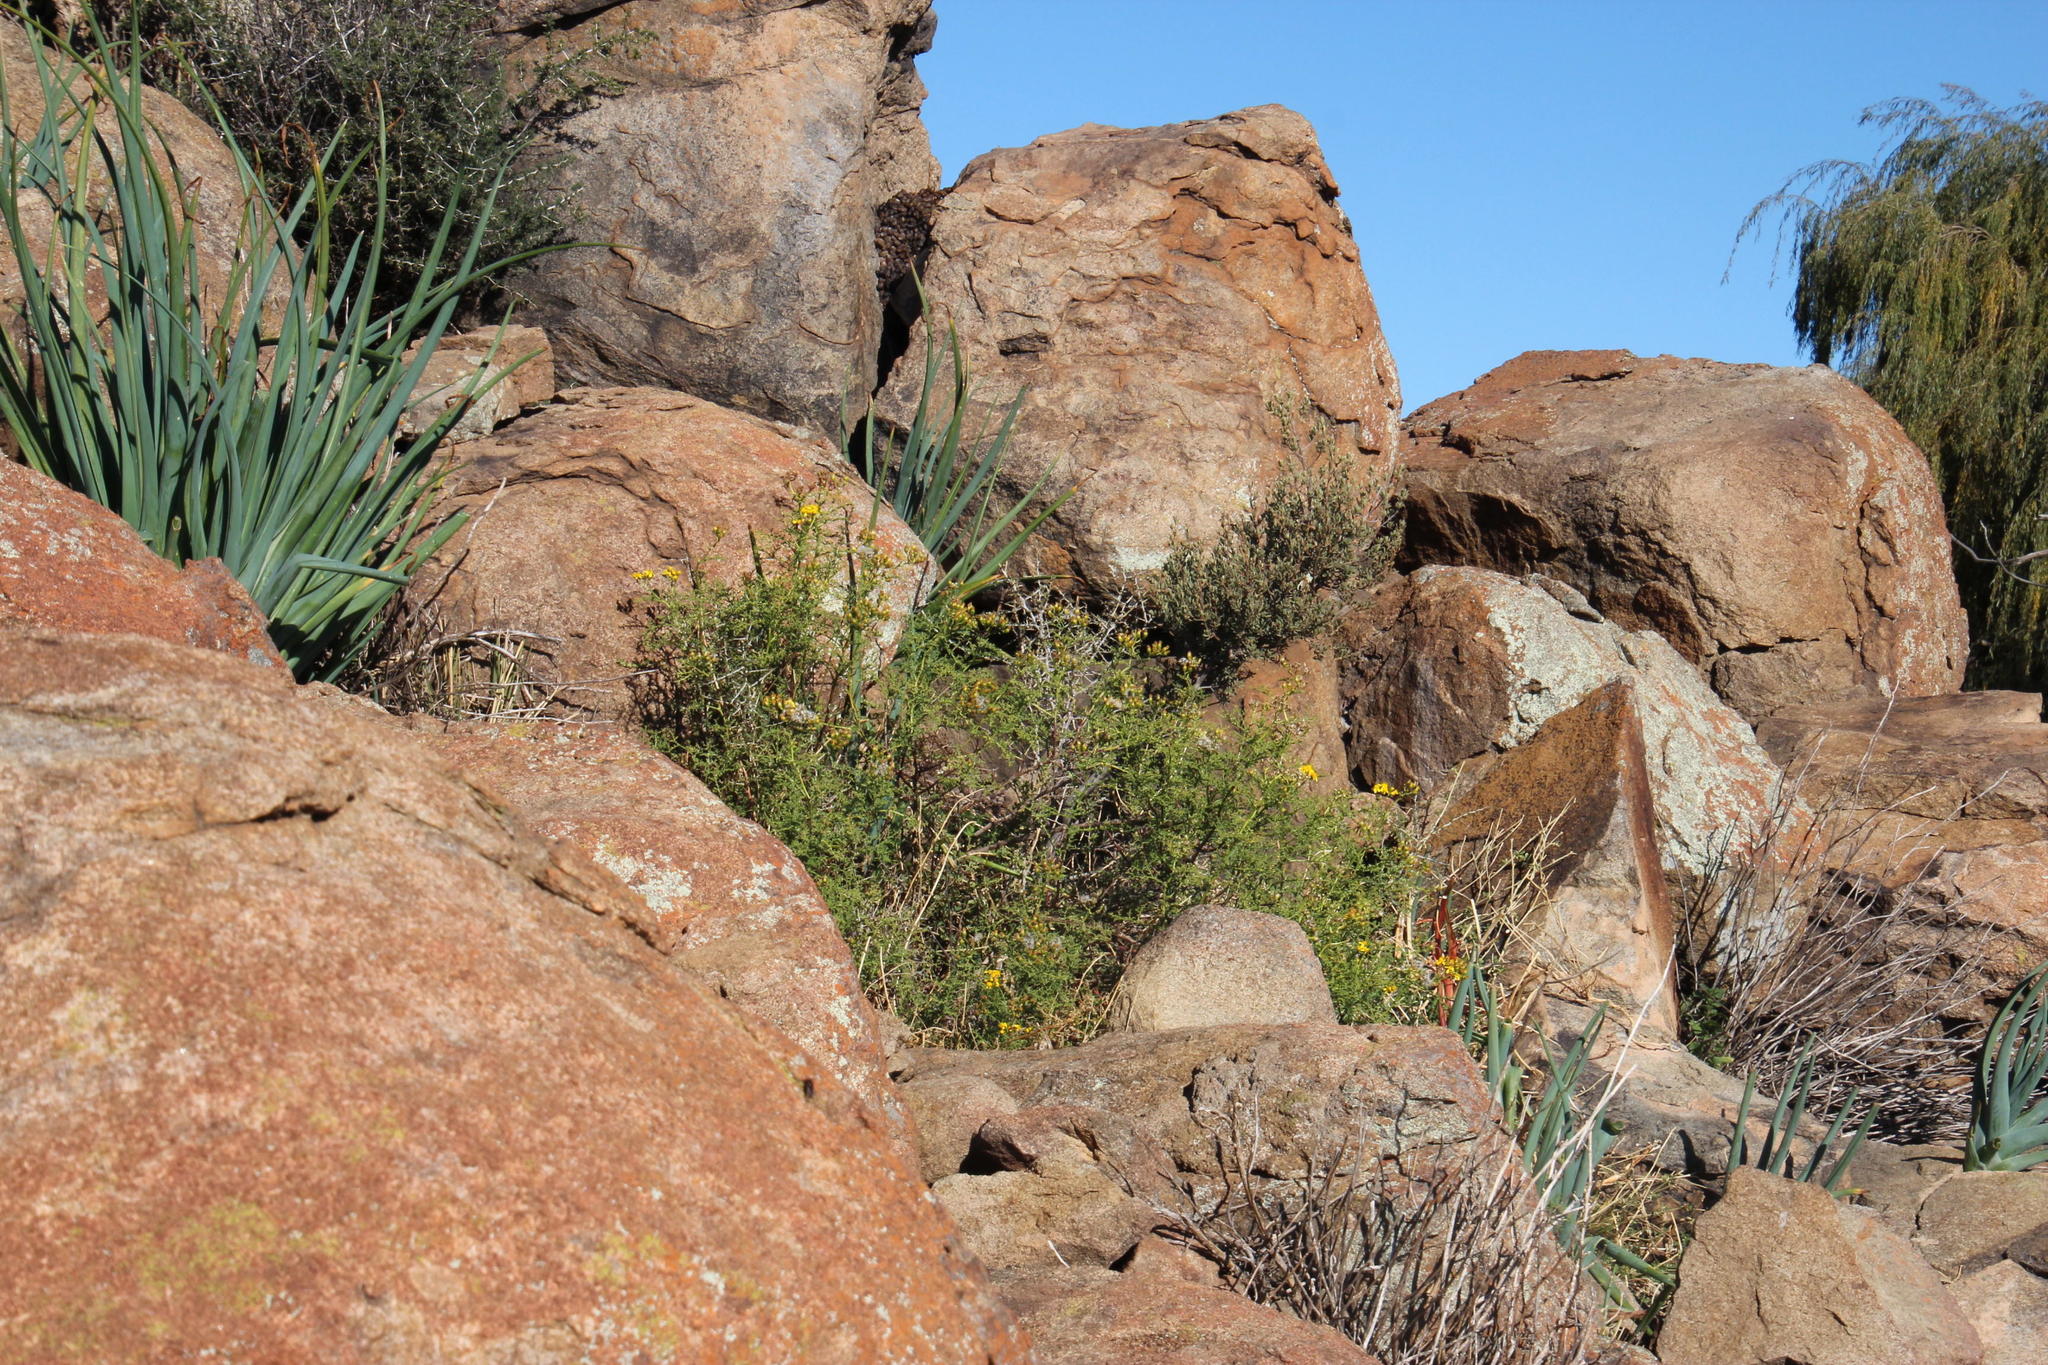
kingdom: Plantae
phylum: Tracheophyta
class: Magnoliopsida
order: Asterales
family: Asteraceae
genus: Senecio
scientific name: Senecio erysimoides
